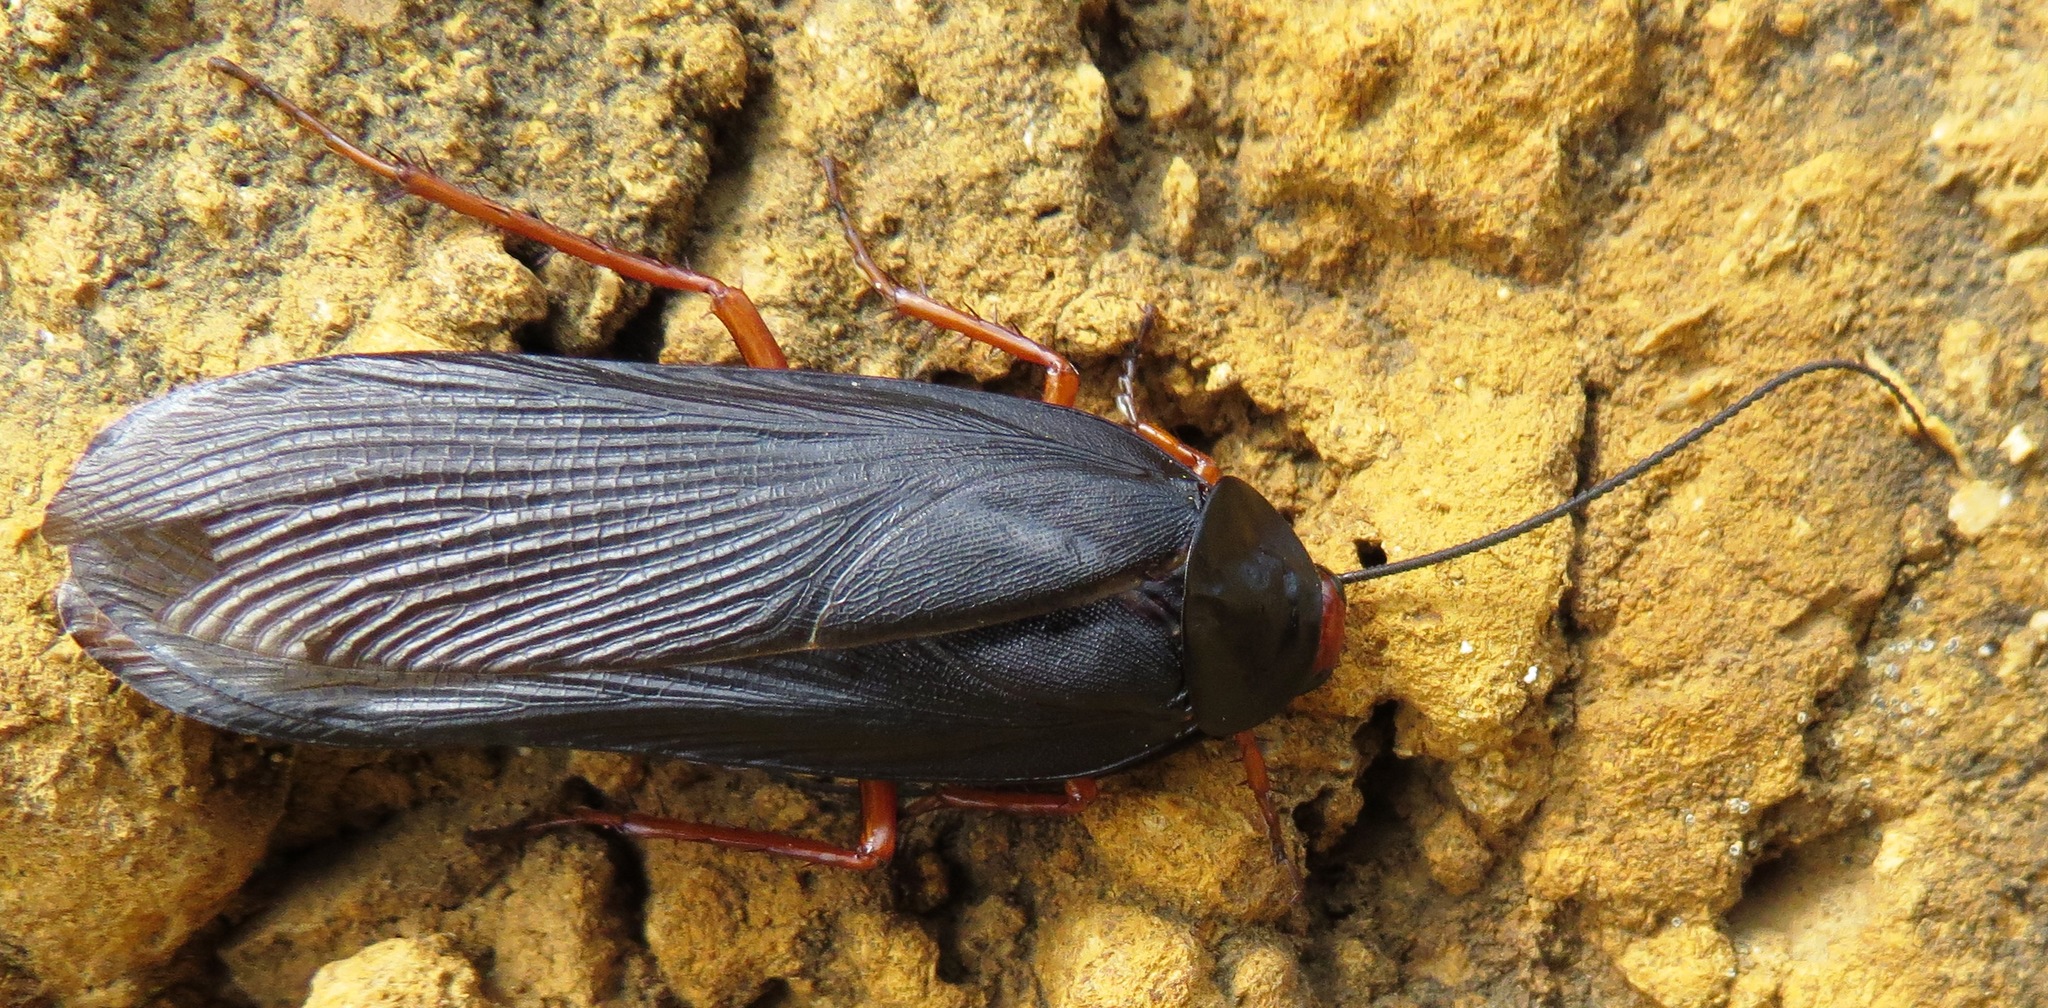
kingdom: Animalia
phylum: Arthropoda
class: Insecta
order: Blattodea
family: Blattidae
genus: Deropeltis
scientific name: Deropeltis erythrocephala
